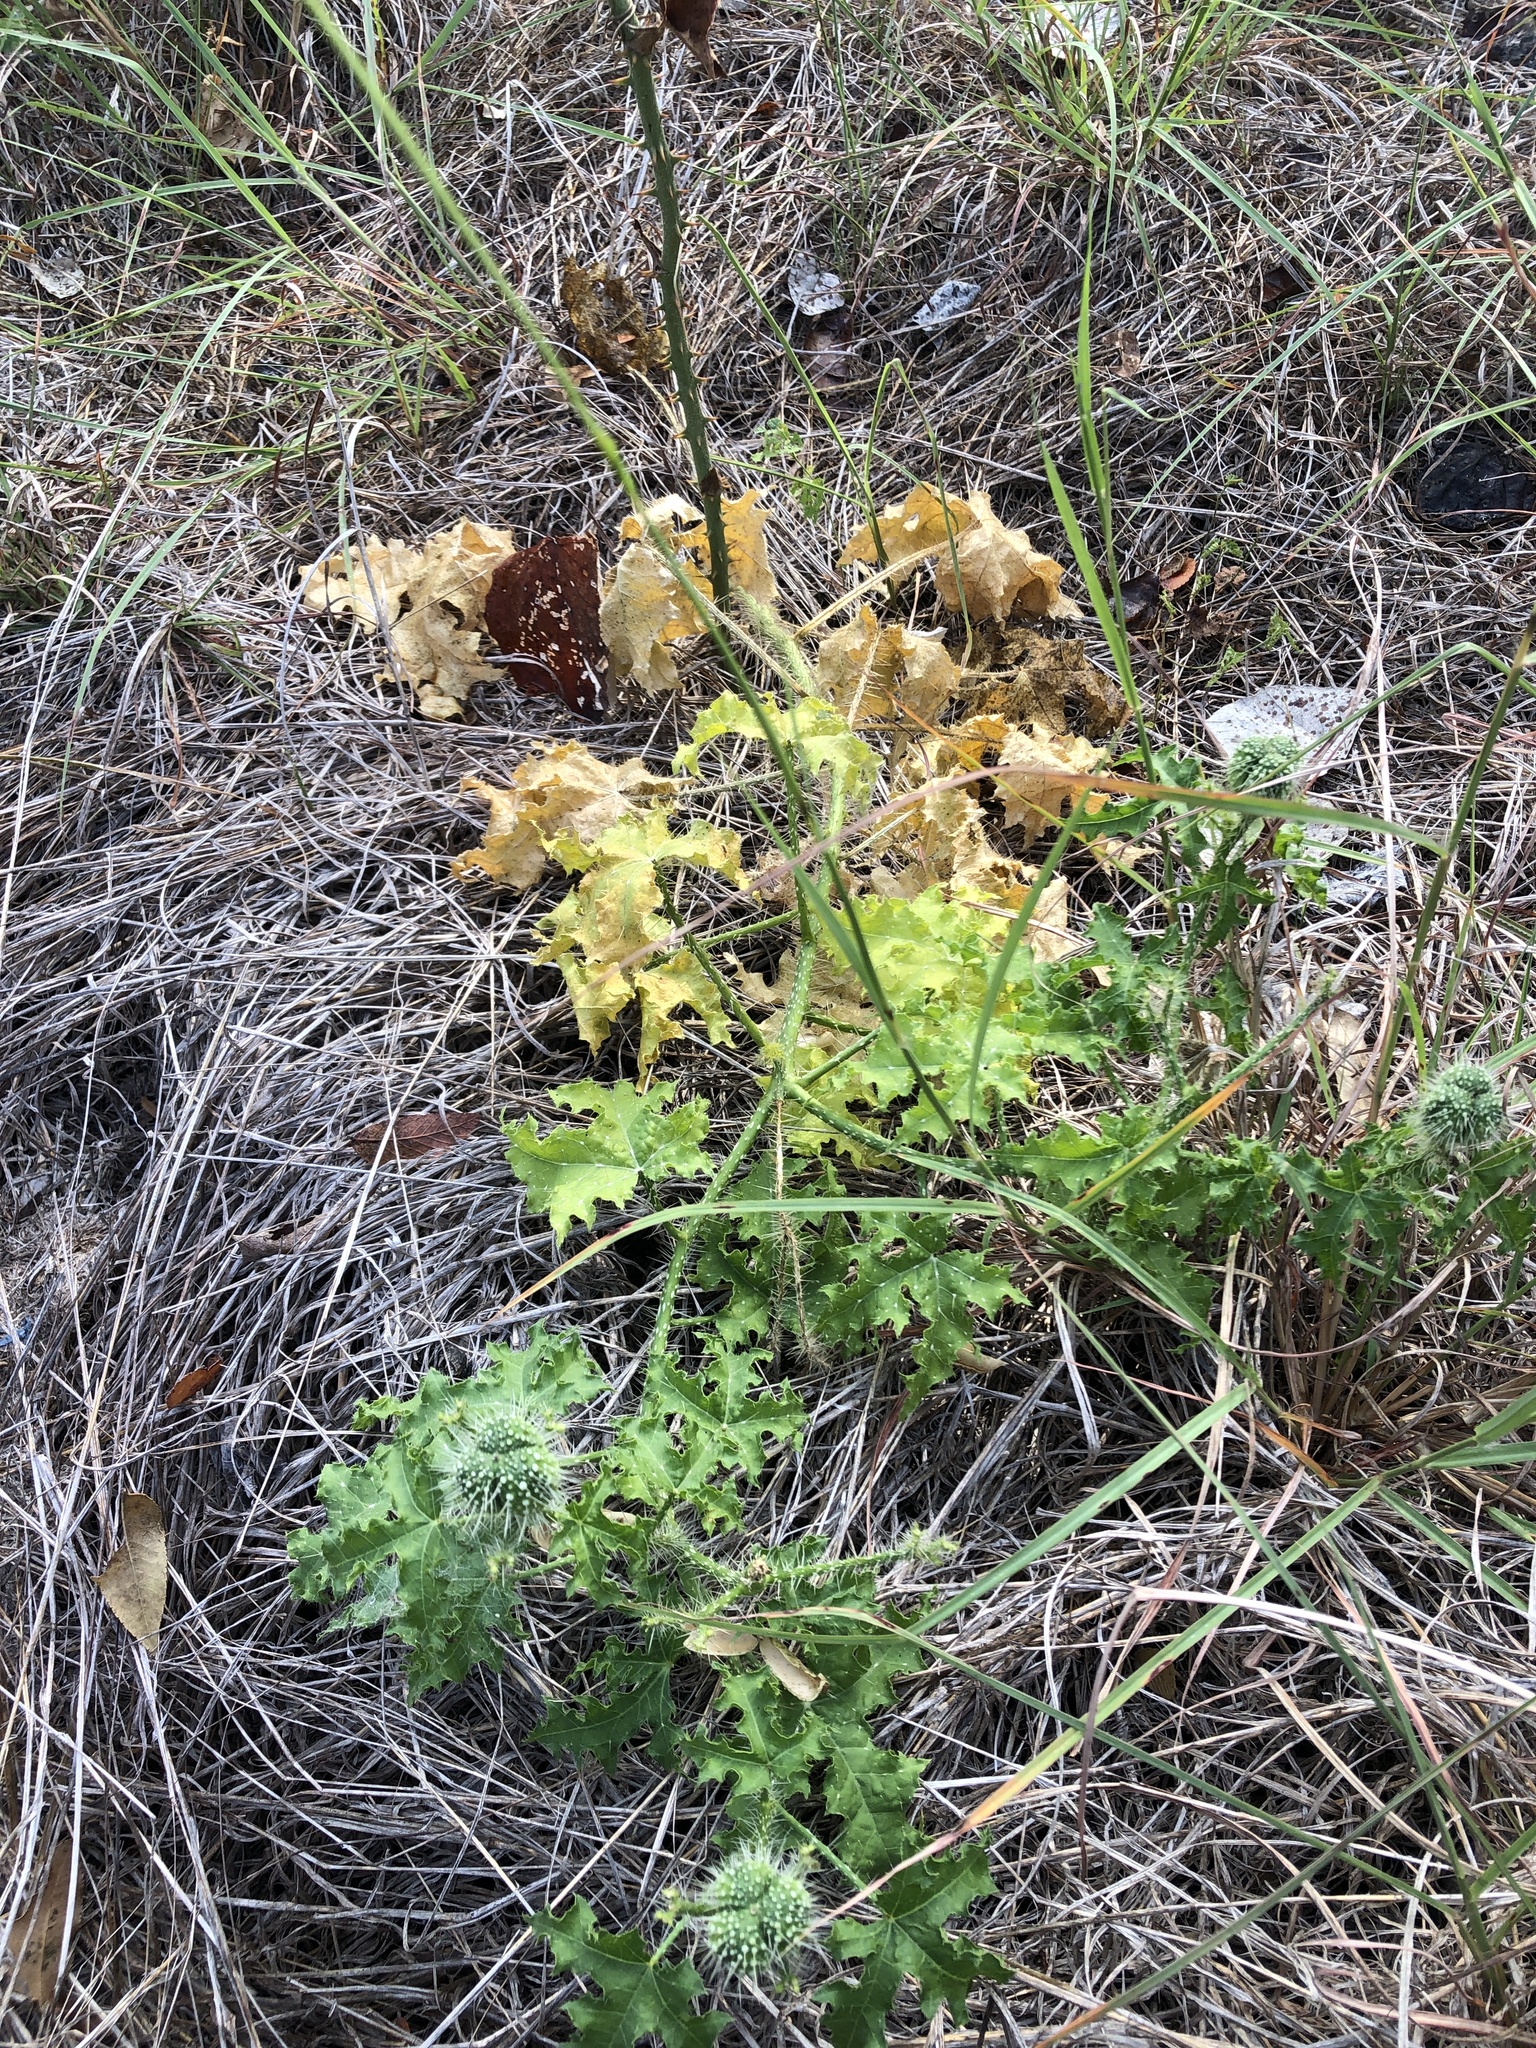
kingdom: Plantae
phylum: Tracheophyta
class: Magnoliopsida
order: Malpighiales
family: Euphorbiaceae
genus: Cnidoscolus
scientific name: Cnidoscolus texanus
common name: Texas bull-nettle
